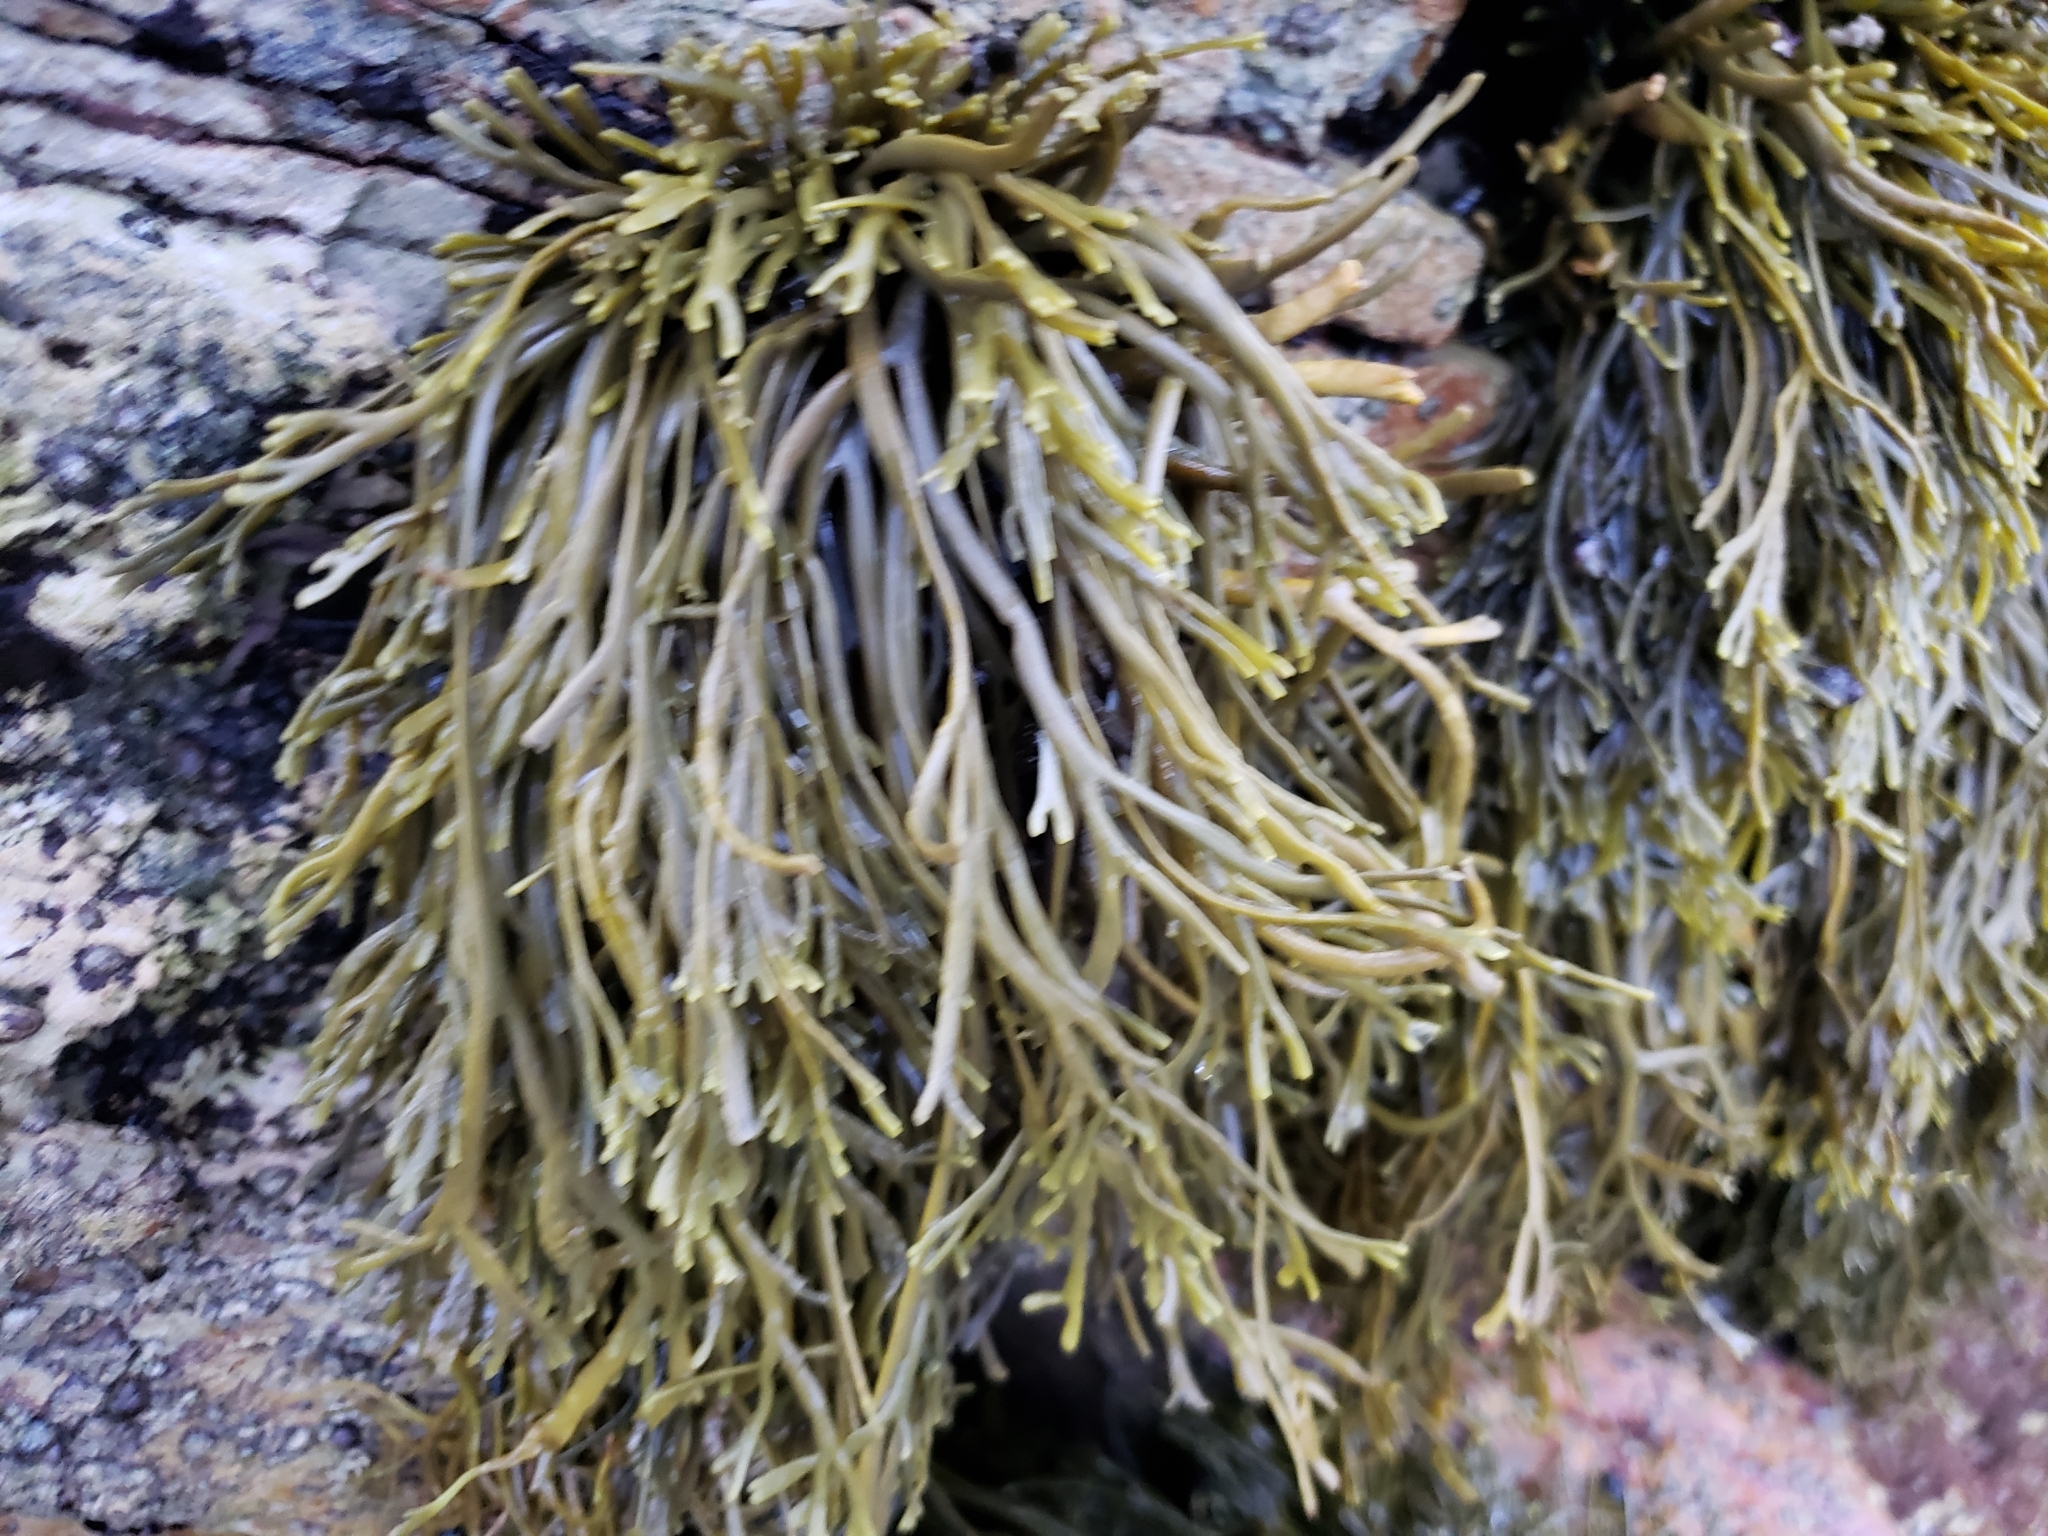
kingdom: Chromista
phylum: Ochrophyta
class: Phaeophyceae
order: Fucales
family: Fucaceae
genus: Silvetia
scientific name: Silvetia
